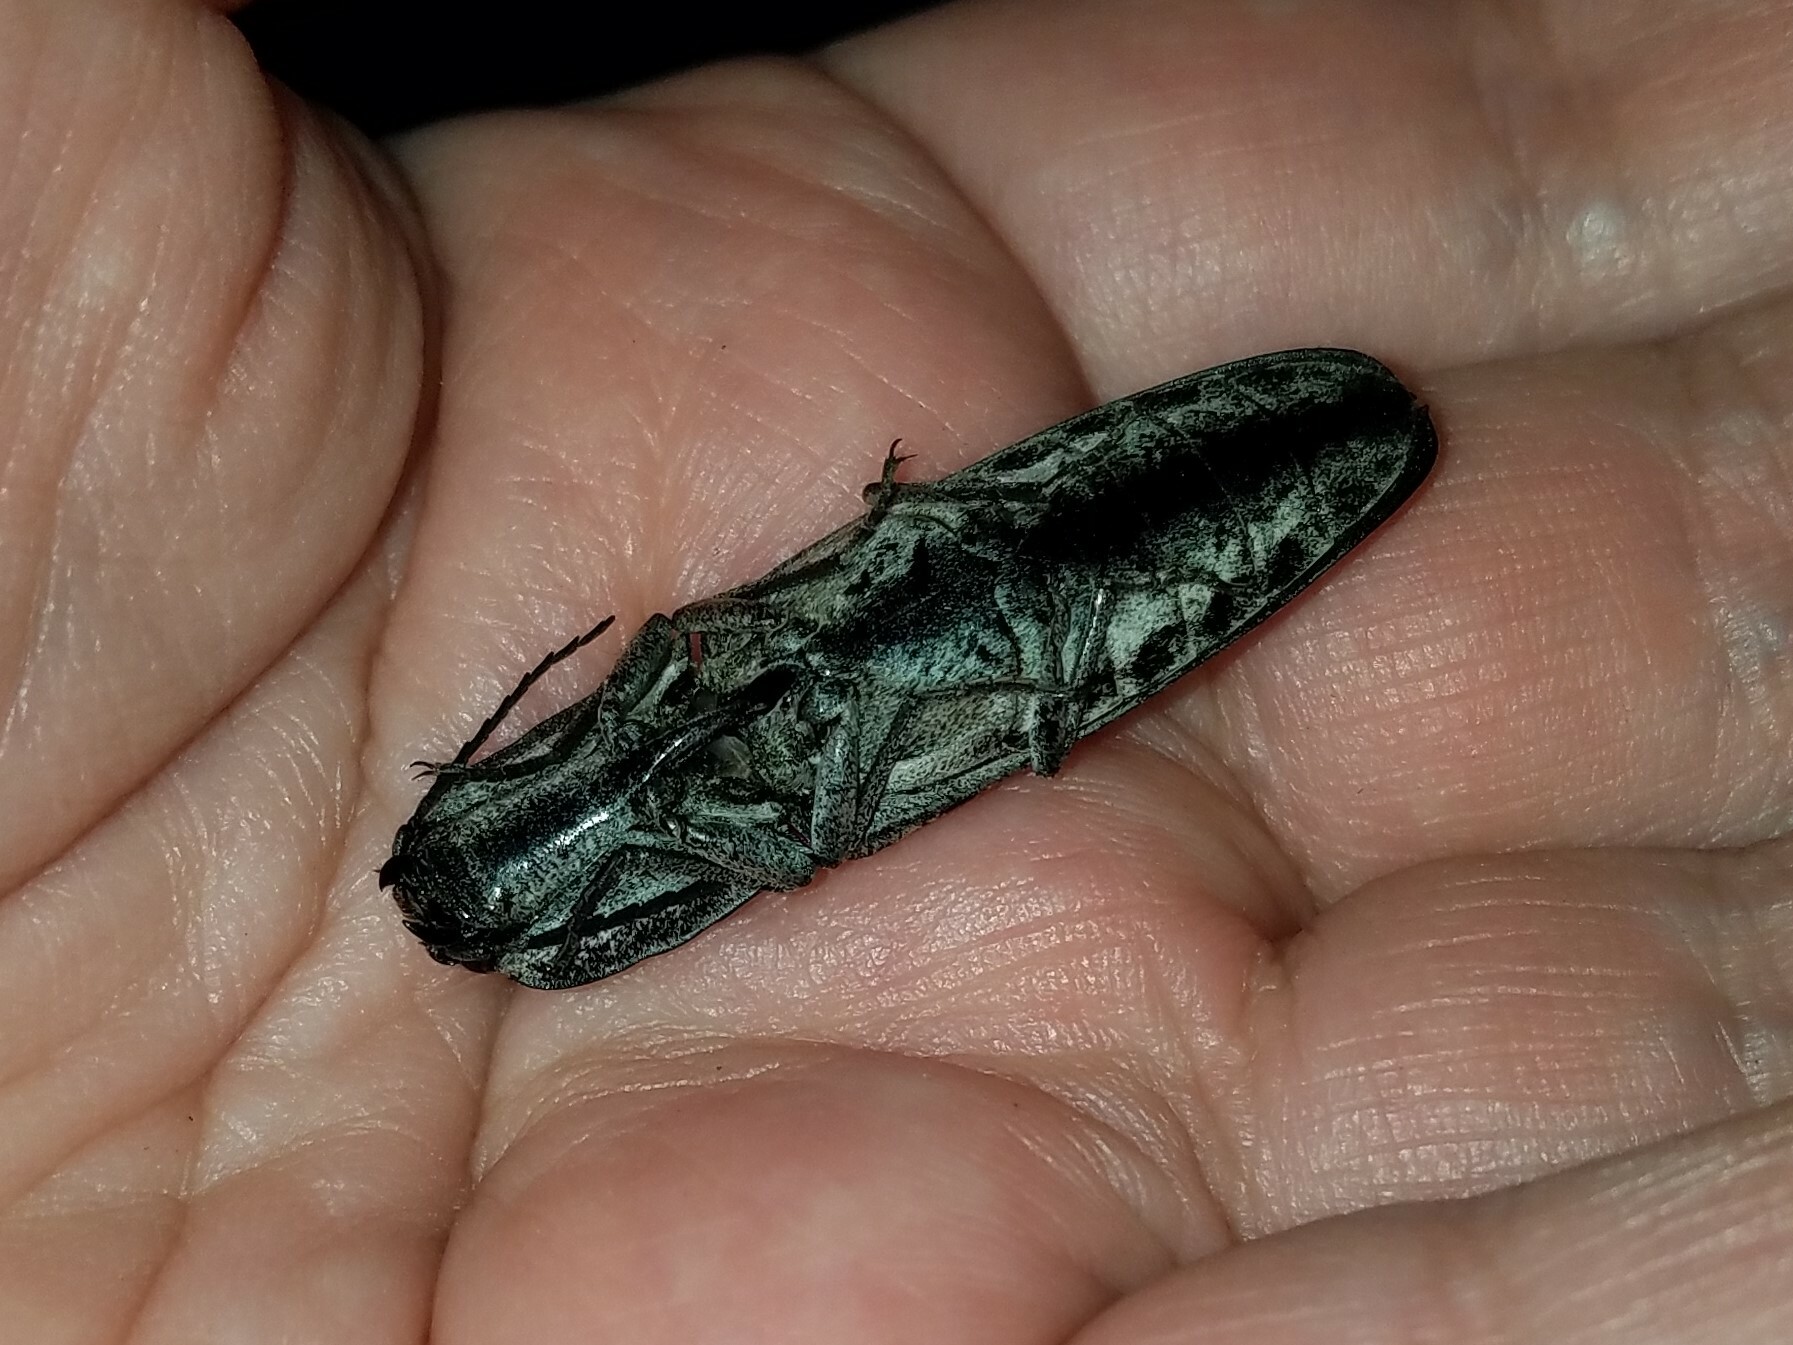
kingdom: Animalia
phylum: Arthropoda
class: Insecta
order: Coleoptera
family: Elateridae
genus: Alaus
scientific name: Alaus myops
